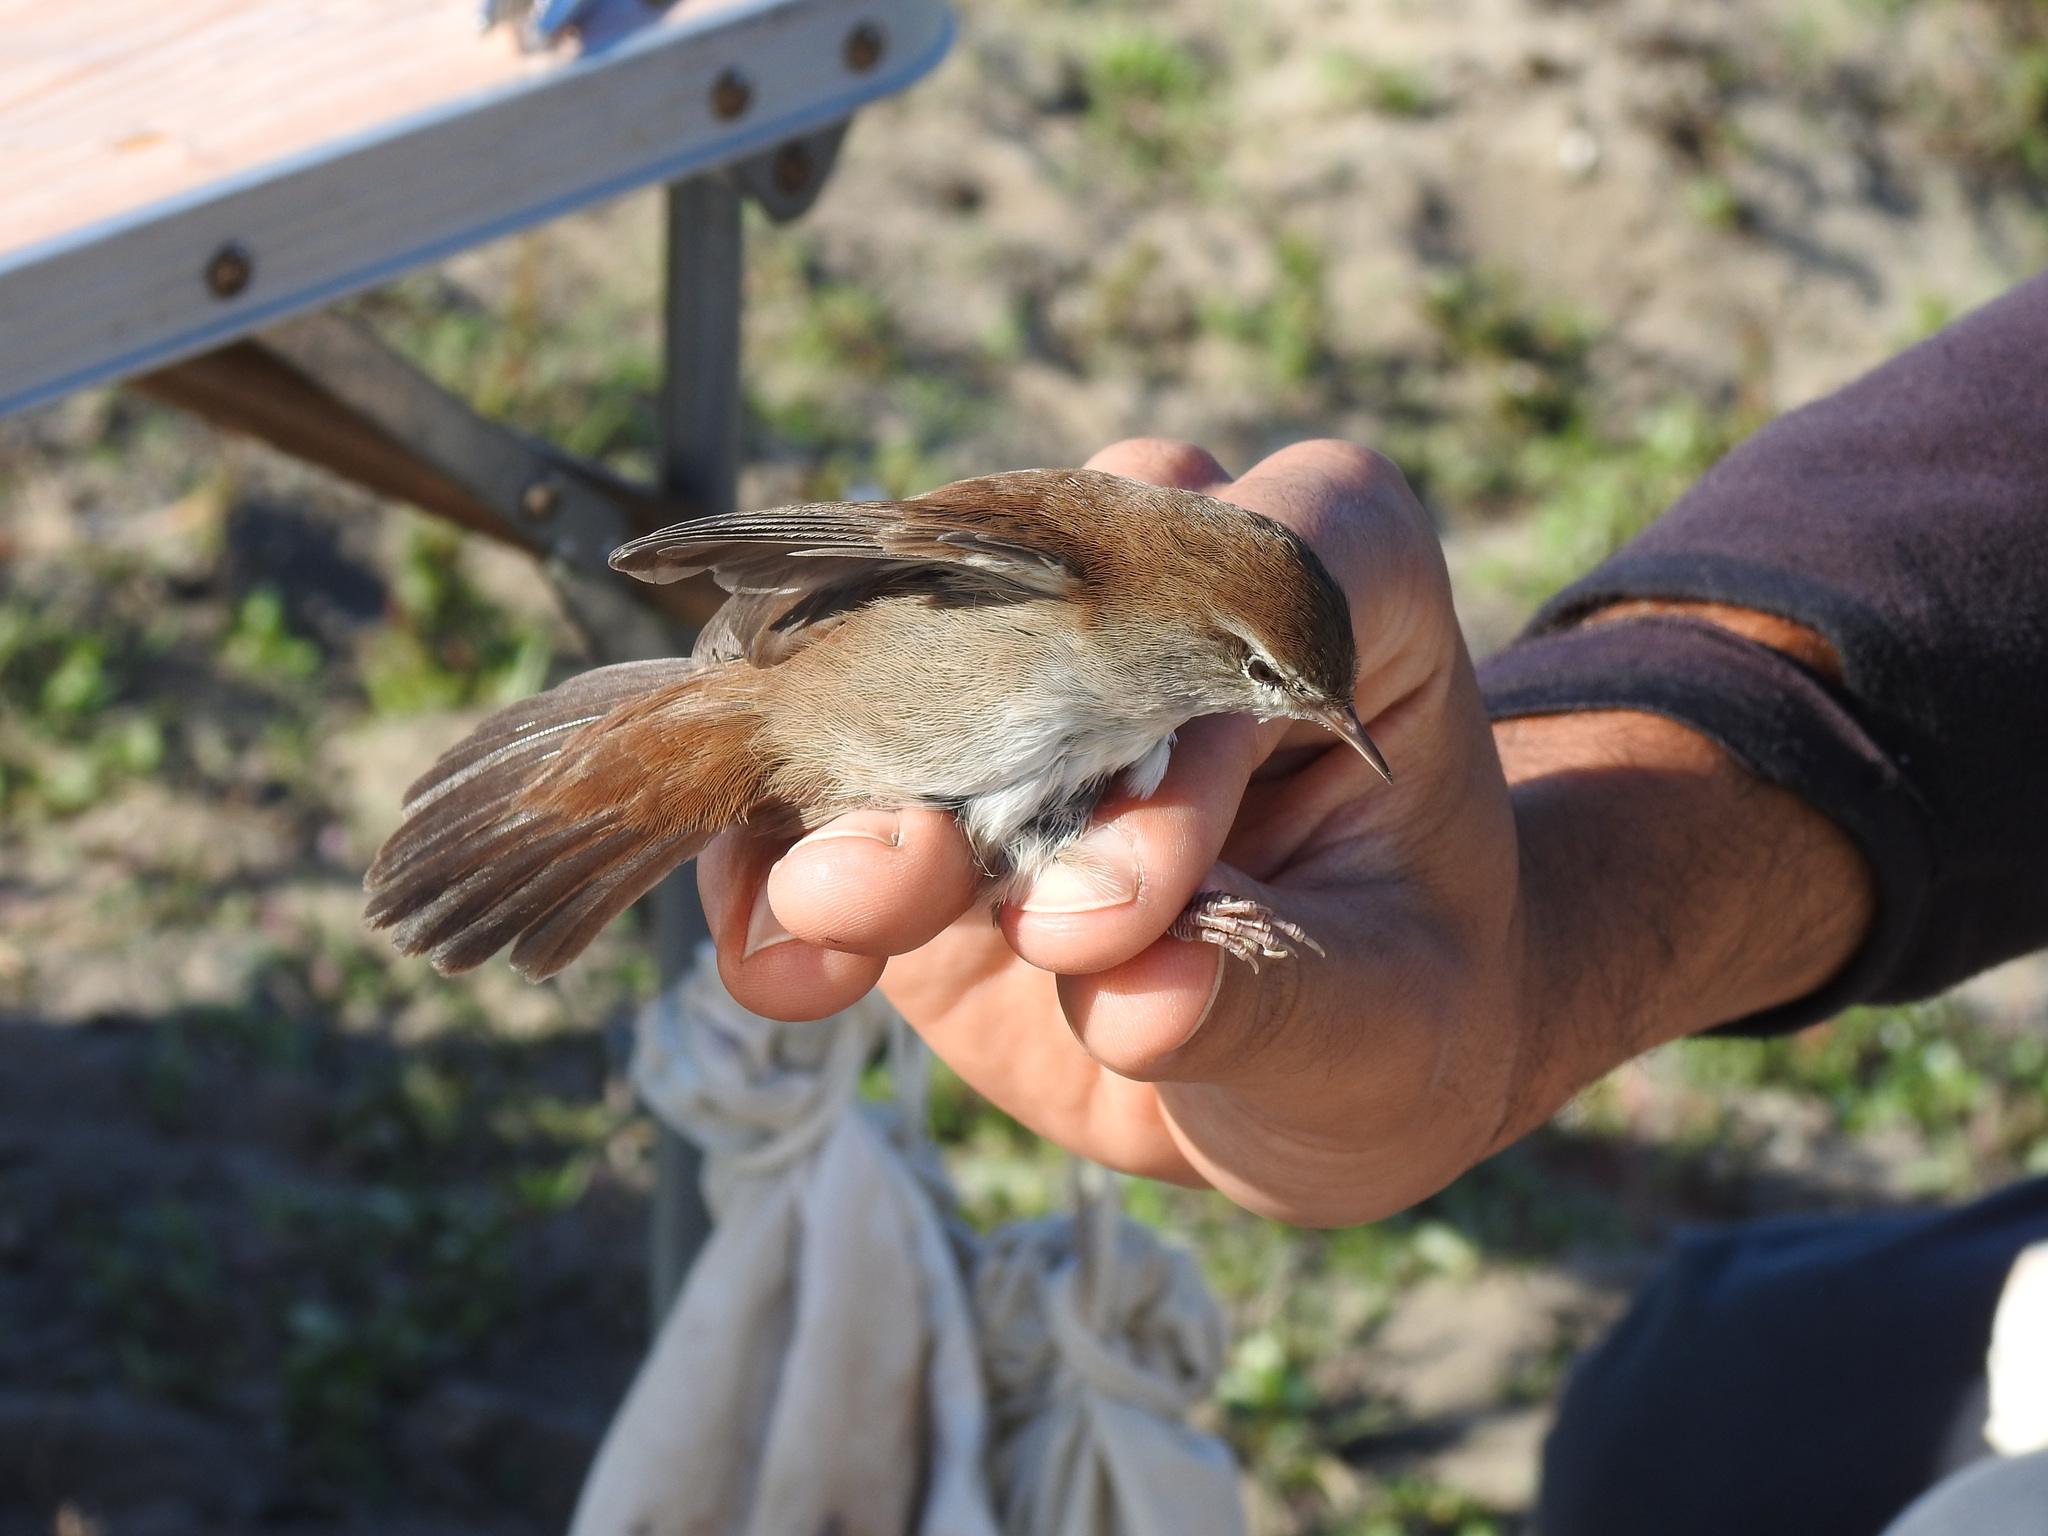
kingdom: Animalia
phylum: Chordata
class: Aves
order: Passeriformes
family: Cettiidae
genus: Cettia
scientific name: Cettia cetti
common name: Cetti's warbler
